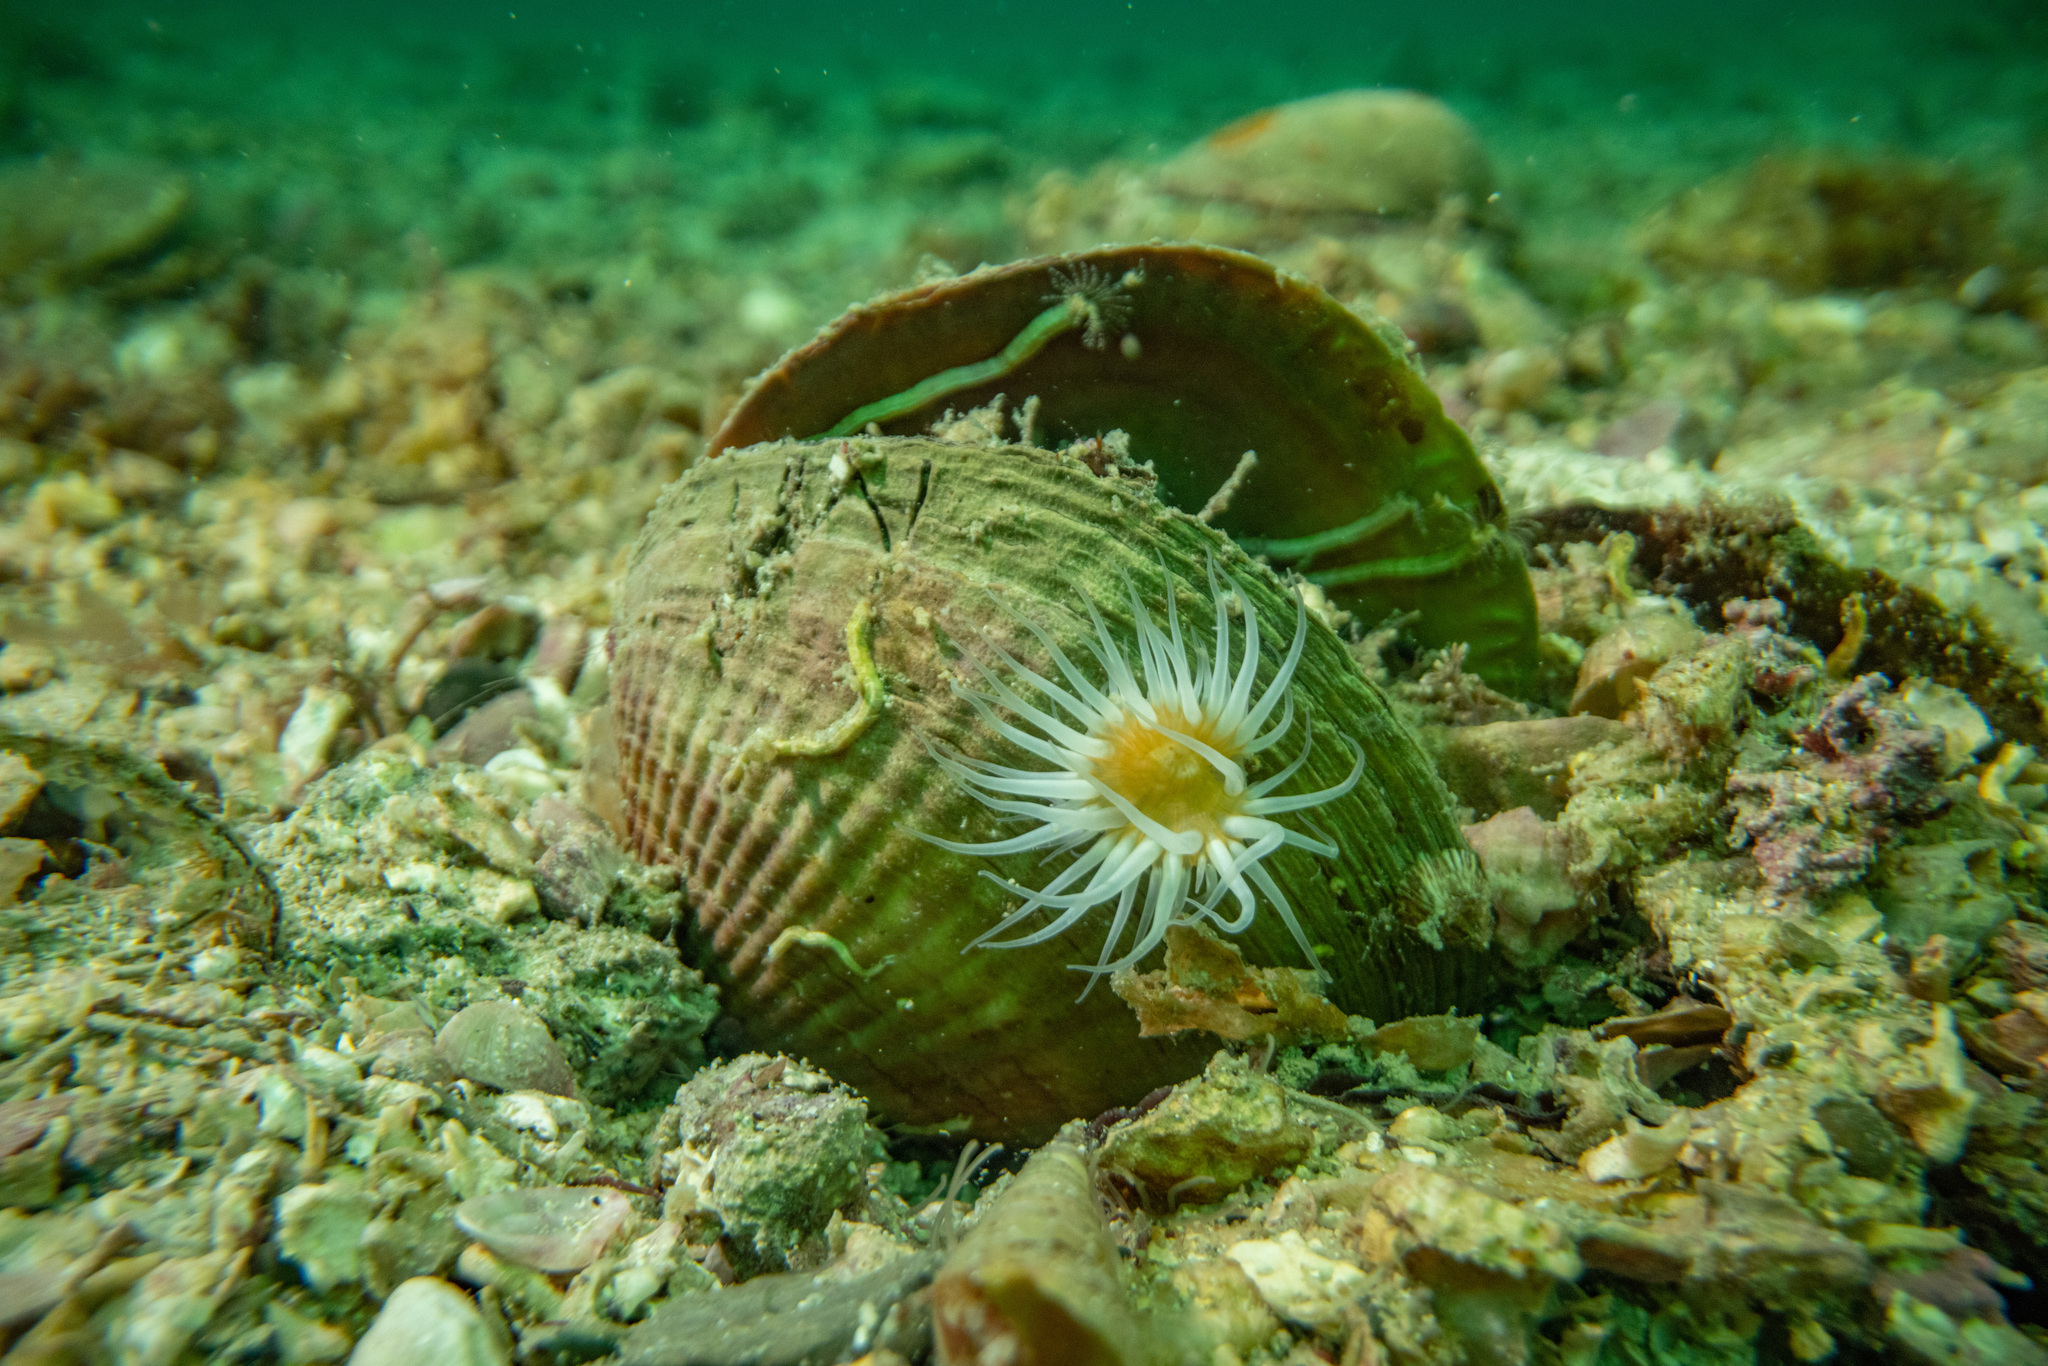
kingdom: Animalia
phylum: Cnidaria
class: Anthozoa
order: Actiniaria
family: Sagartiidae
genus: Anthothoe
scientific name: Anthothoe albocincta
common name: Orange striped anemone
